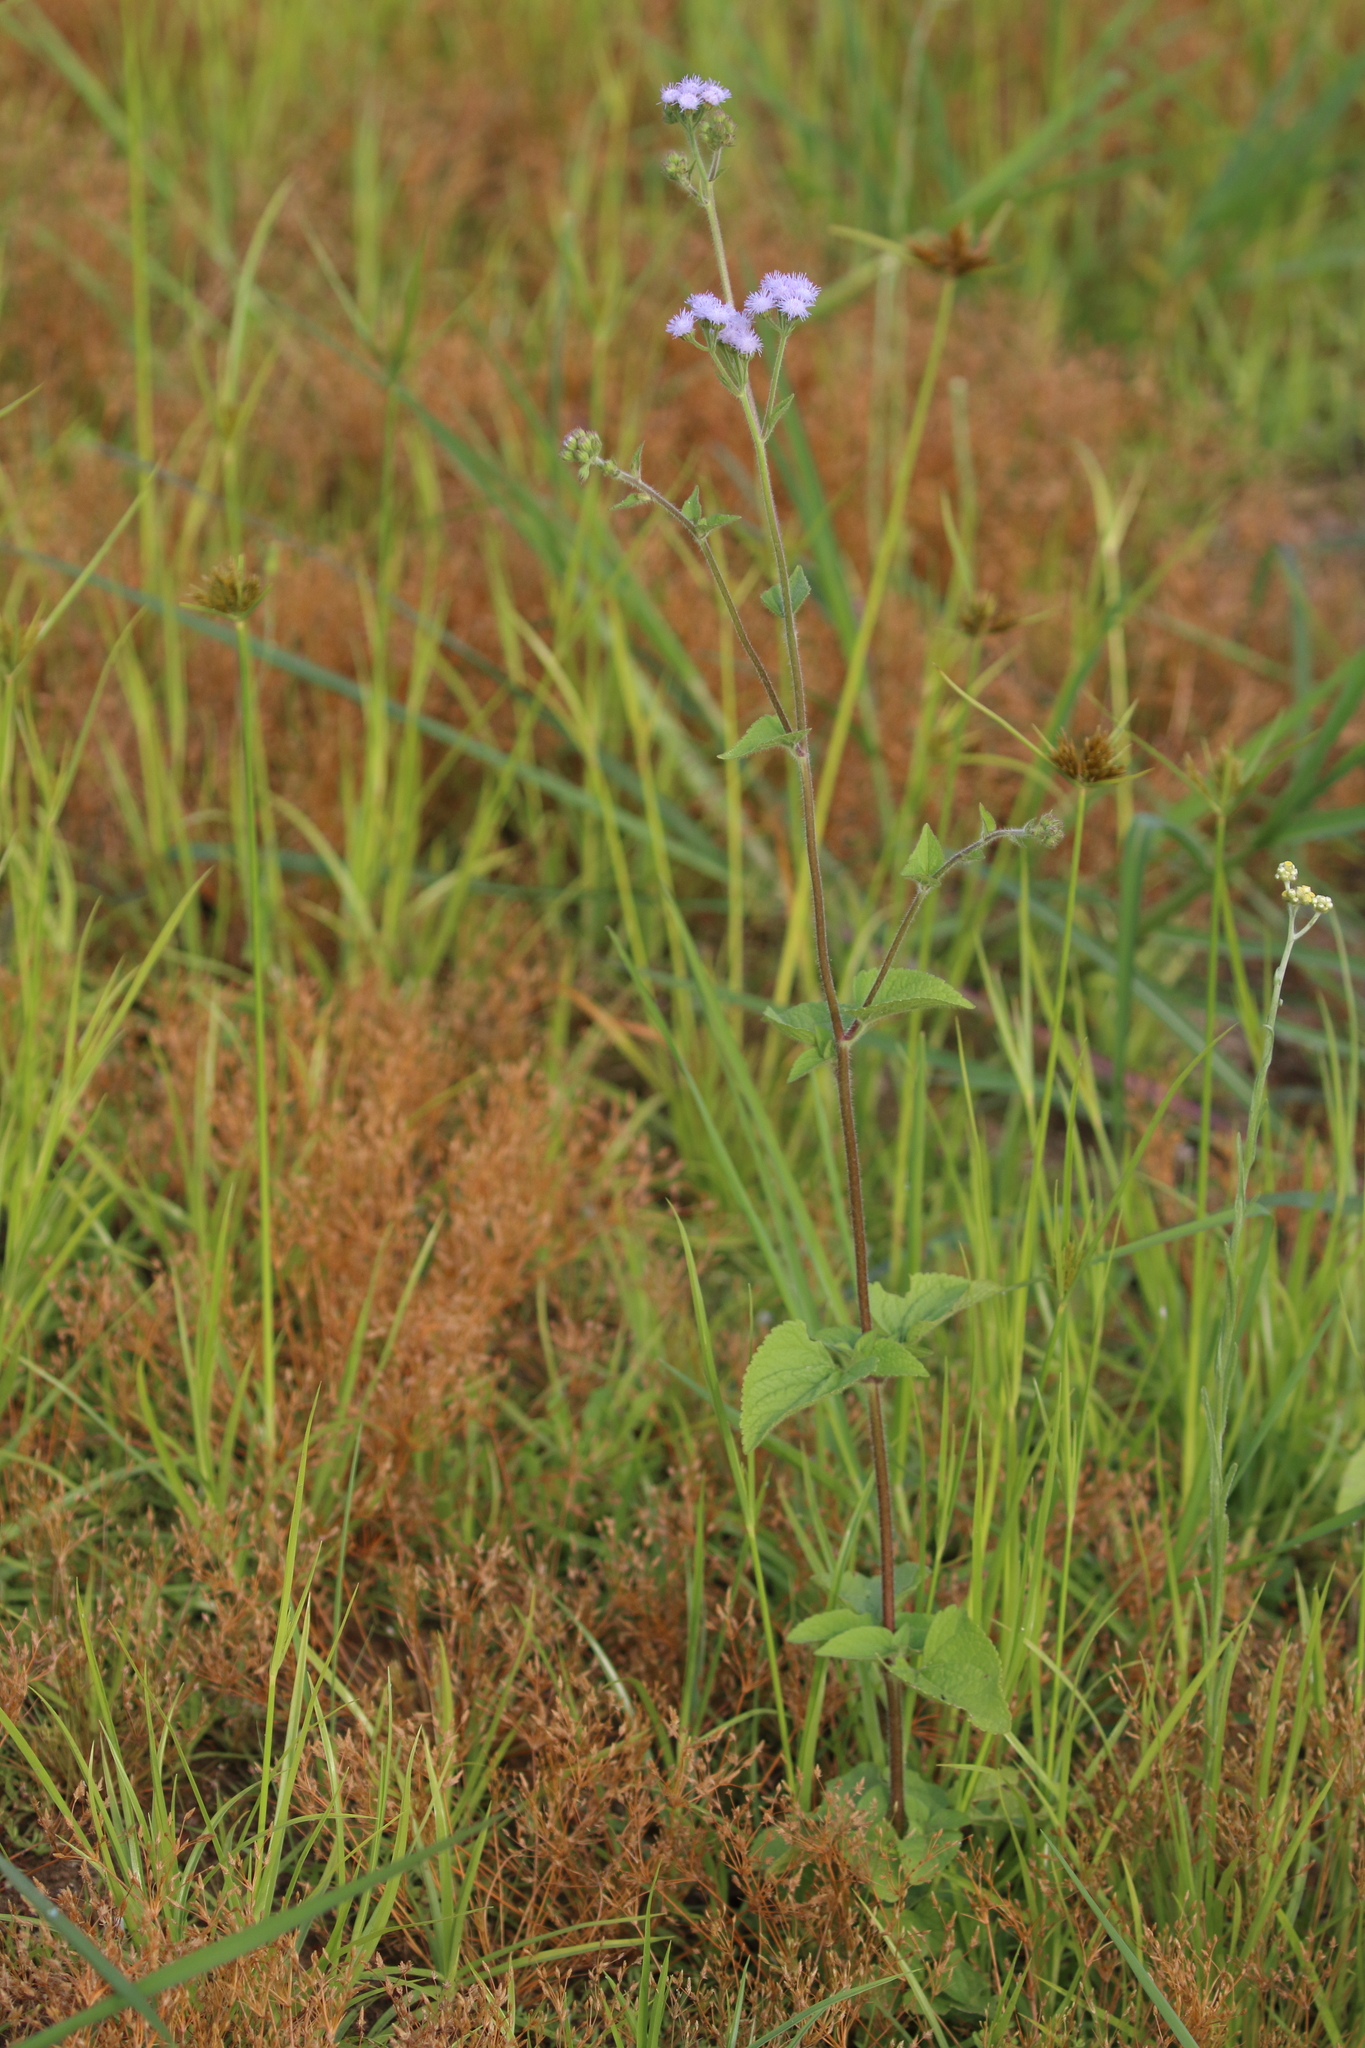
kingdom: Plantae
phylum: Tracheophyta
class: Magnoliopsida
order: Asterales
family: Asteraceae
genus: Ageratum
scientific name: Ageratum houstonianum
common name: Bluemink
